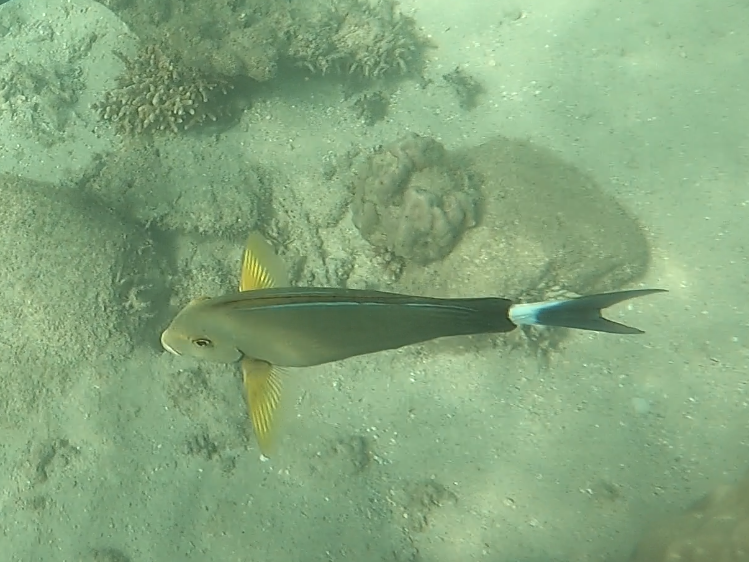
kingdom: Animalia
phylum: Chordata
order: Perciformes
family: Acanthuridae
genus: Acanthurus
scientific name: Acanthurus xanthopterus
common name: Cuvier's surgeonfish
